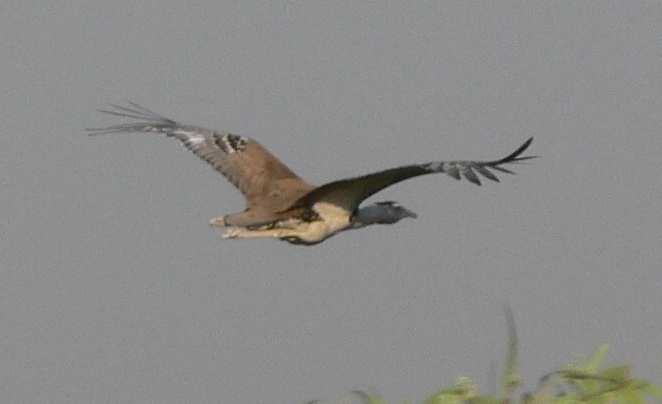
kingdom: Animalia
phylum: Chordata
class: Aves
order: Otidiformes
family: Otididae
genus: Ardeotis
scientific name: Ardeotis australis
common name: Australian bustard
